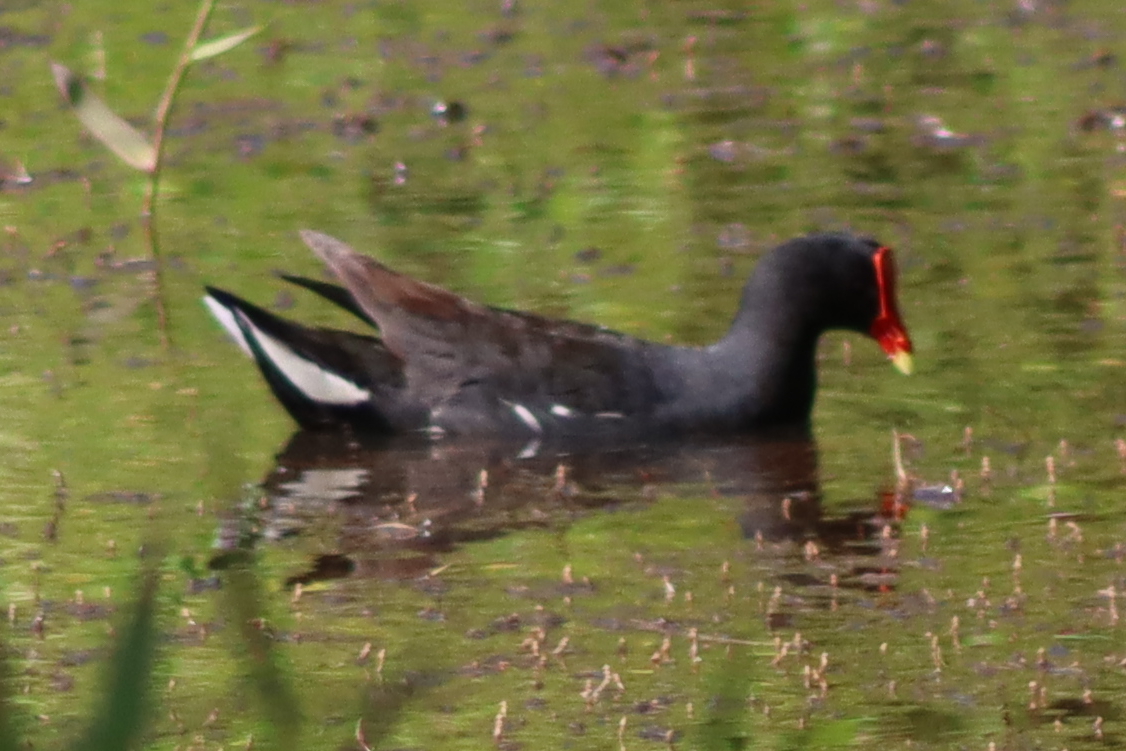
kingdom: Animalia
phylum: Chordata
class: Aves
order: Gruiformes
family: Rallidae
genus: Gallinula
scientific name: Gallinula chloropus
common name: Common moorhen
